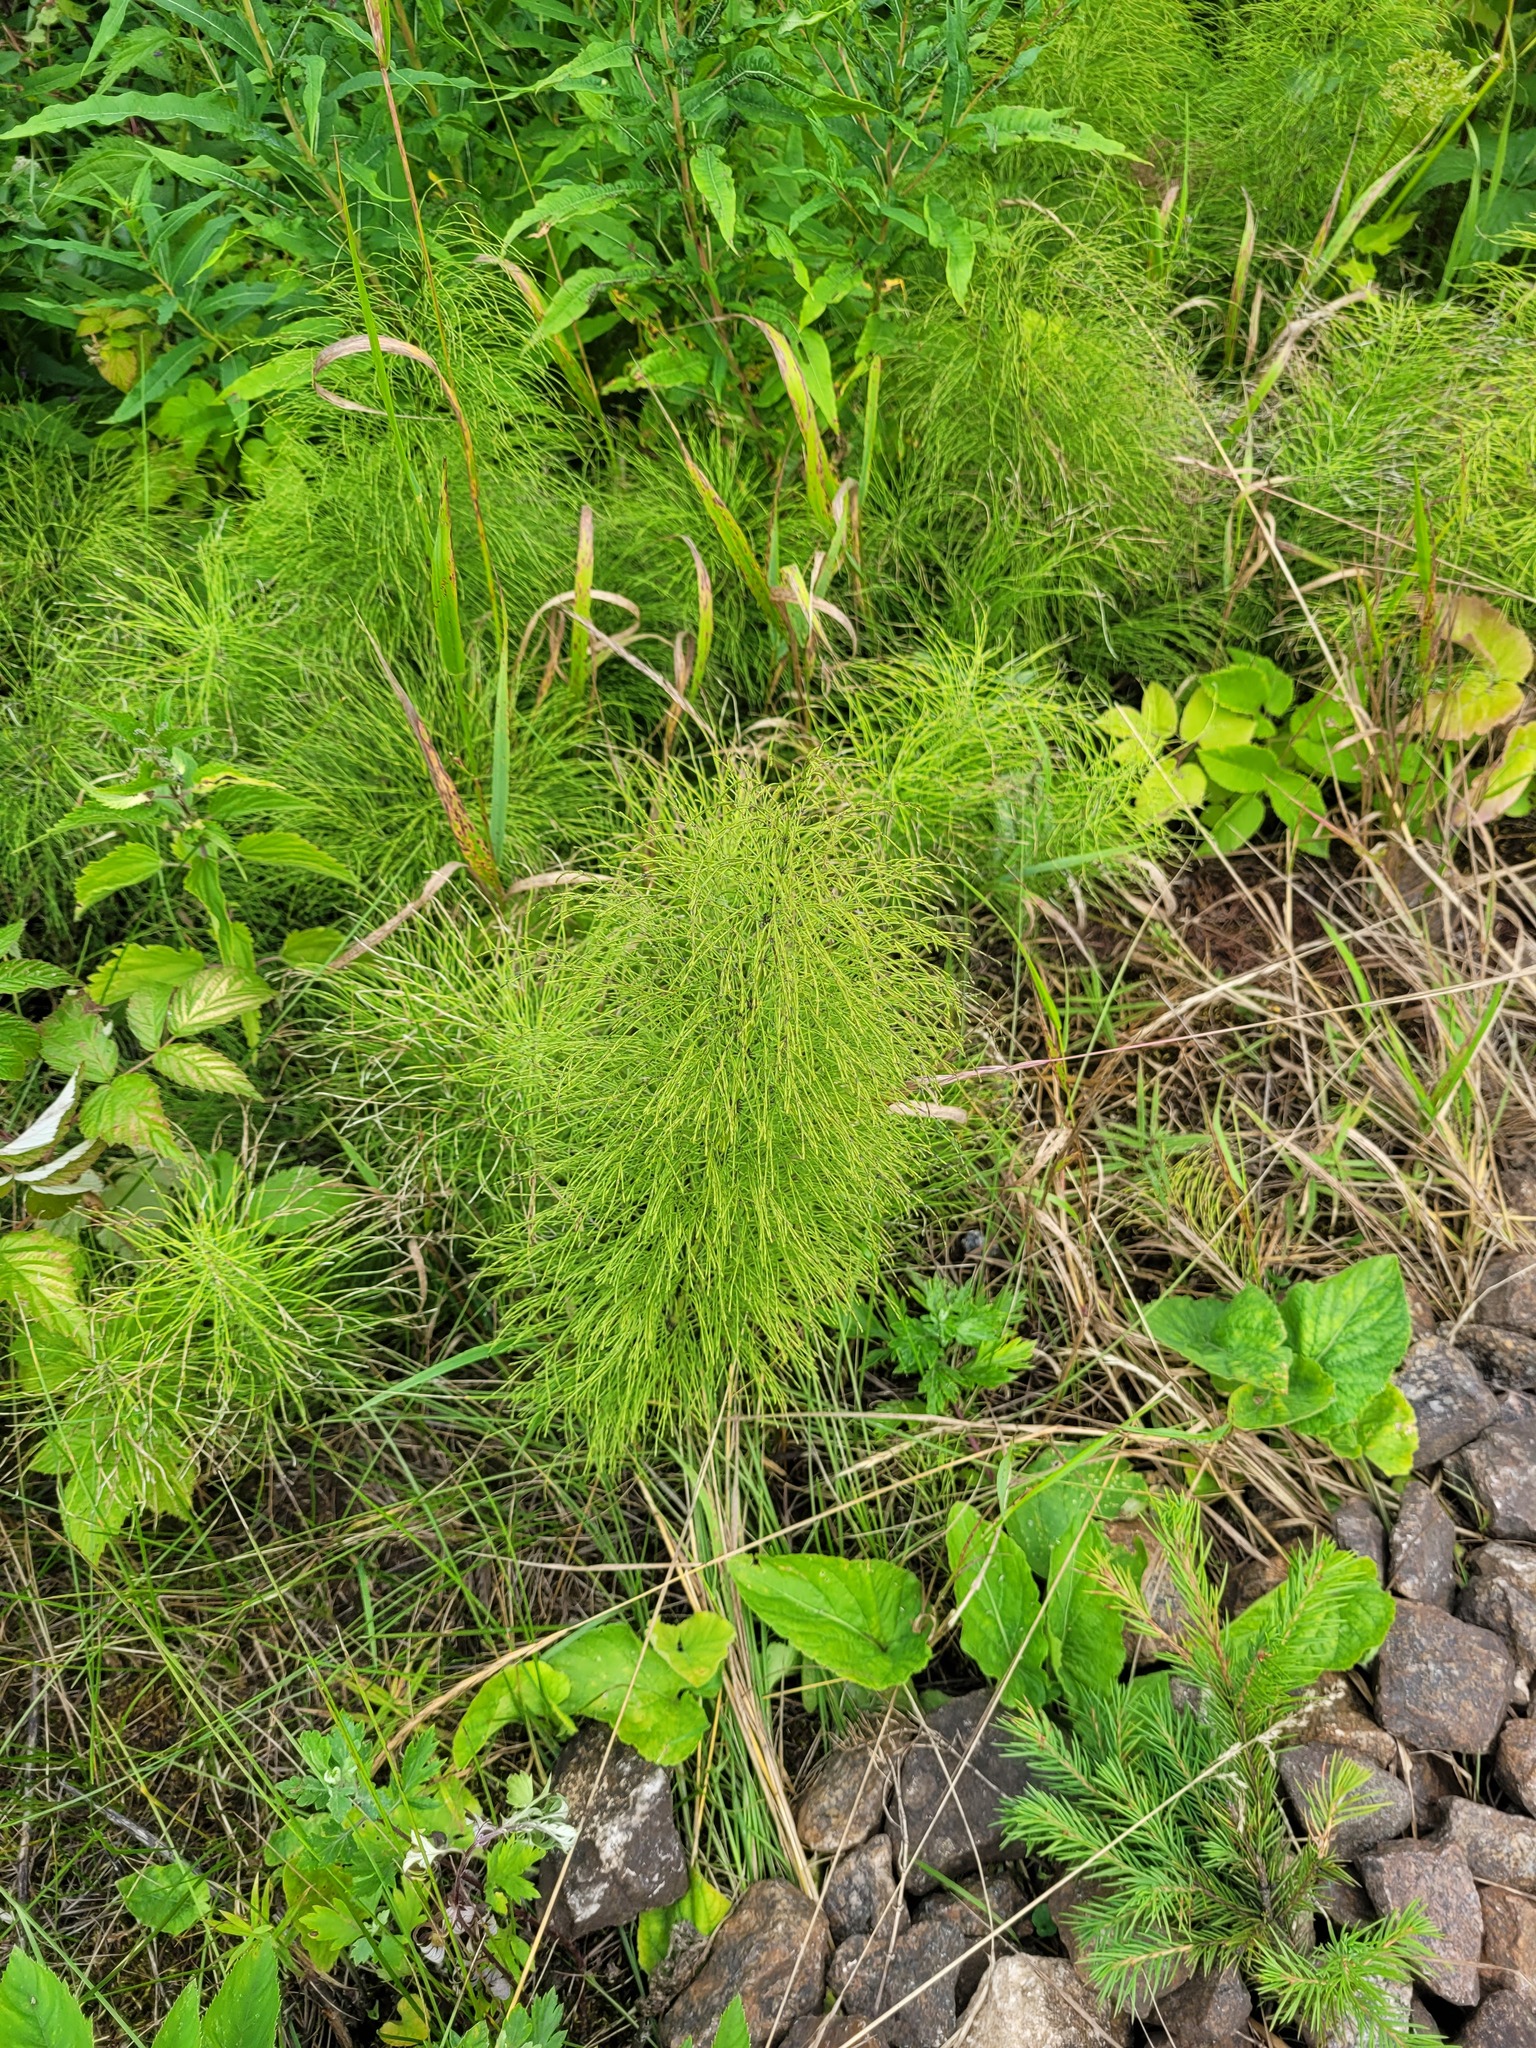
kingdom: Plantae
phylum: Tracheophyta
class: Polypodiopsida
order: Equisetales
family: Equisetaceae
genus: Equisetum
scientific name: Equisetum sylvaticum
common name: Wood horsetail
